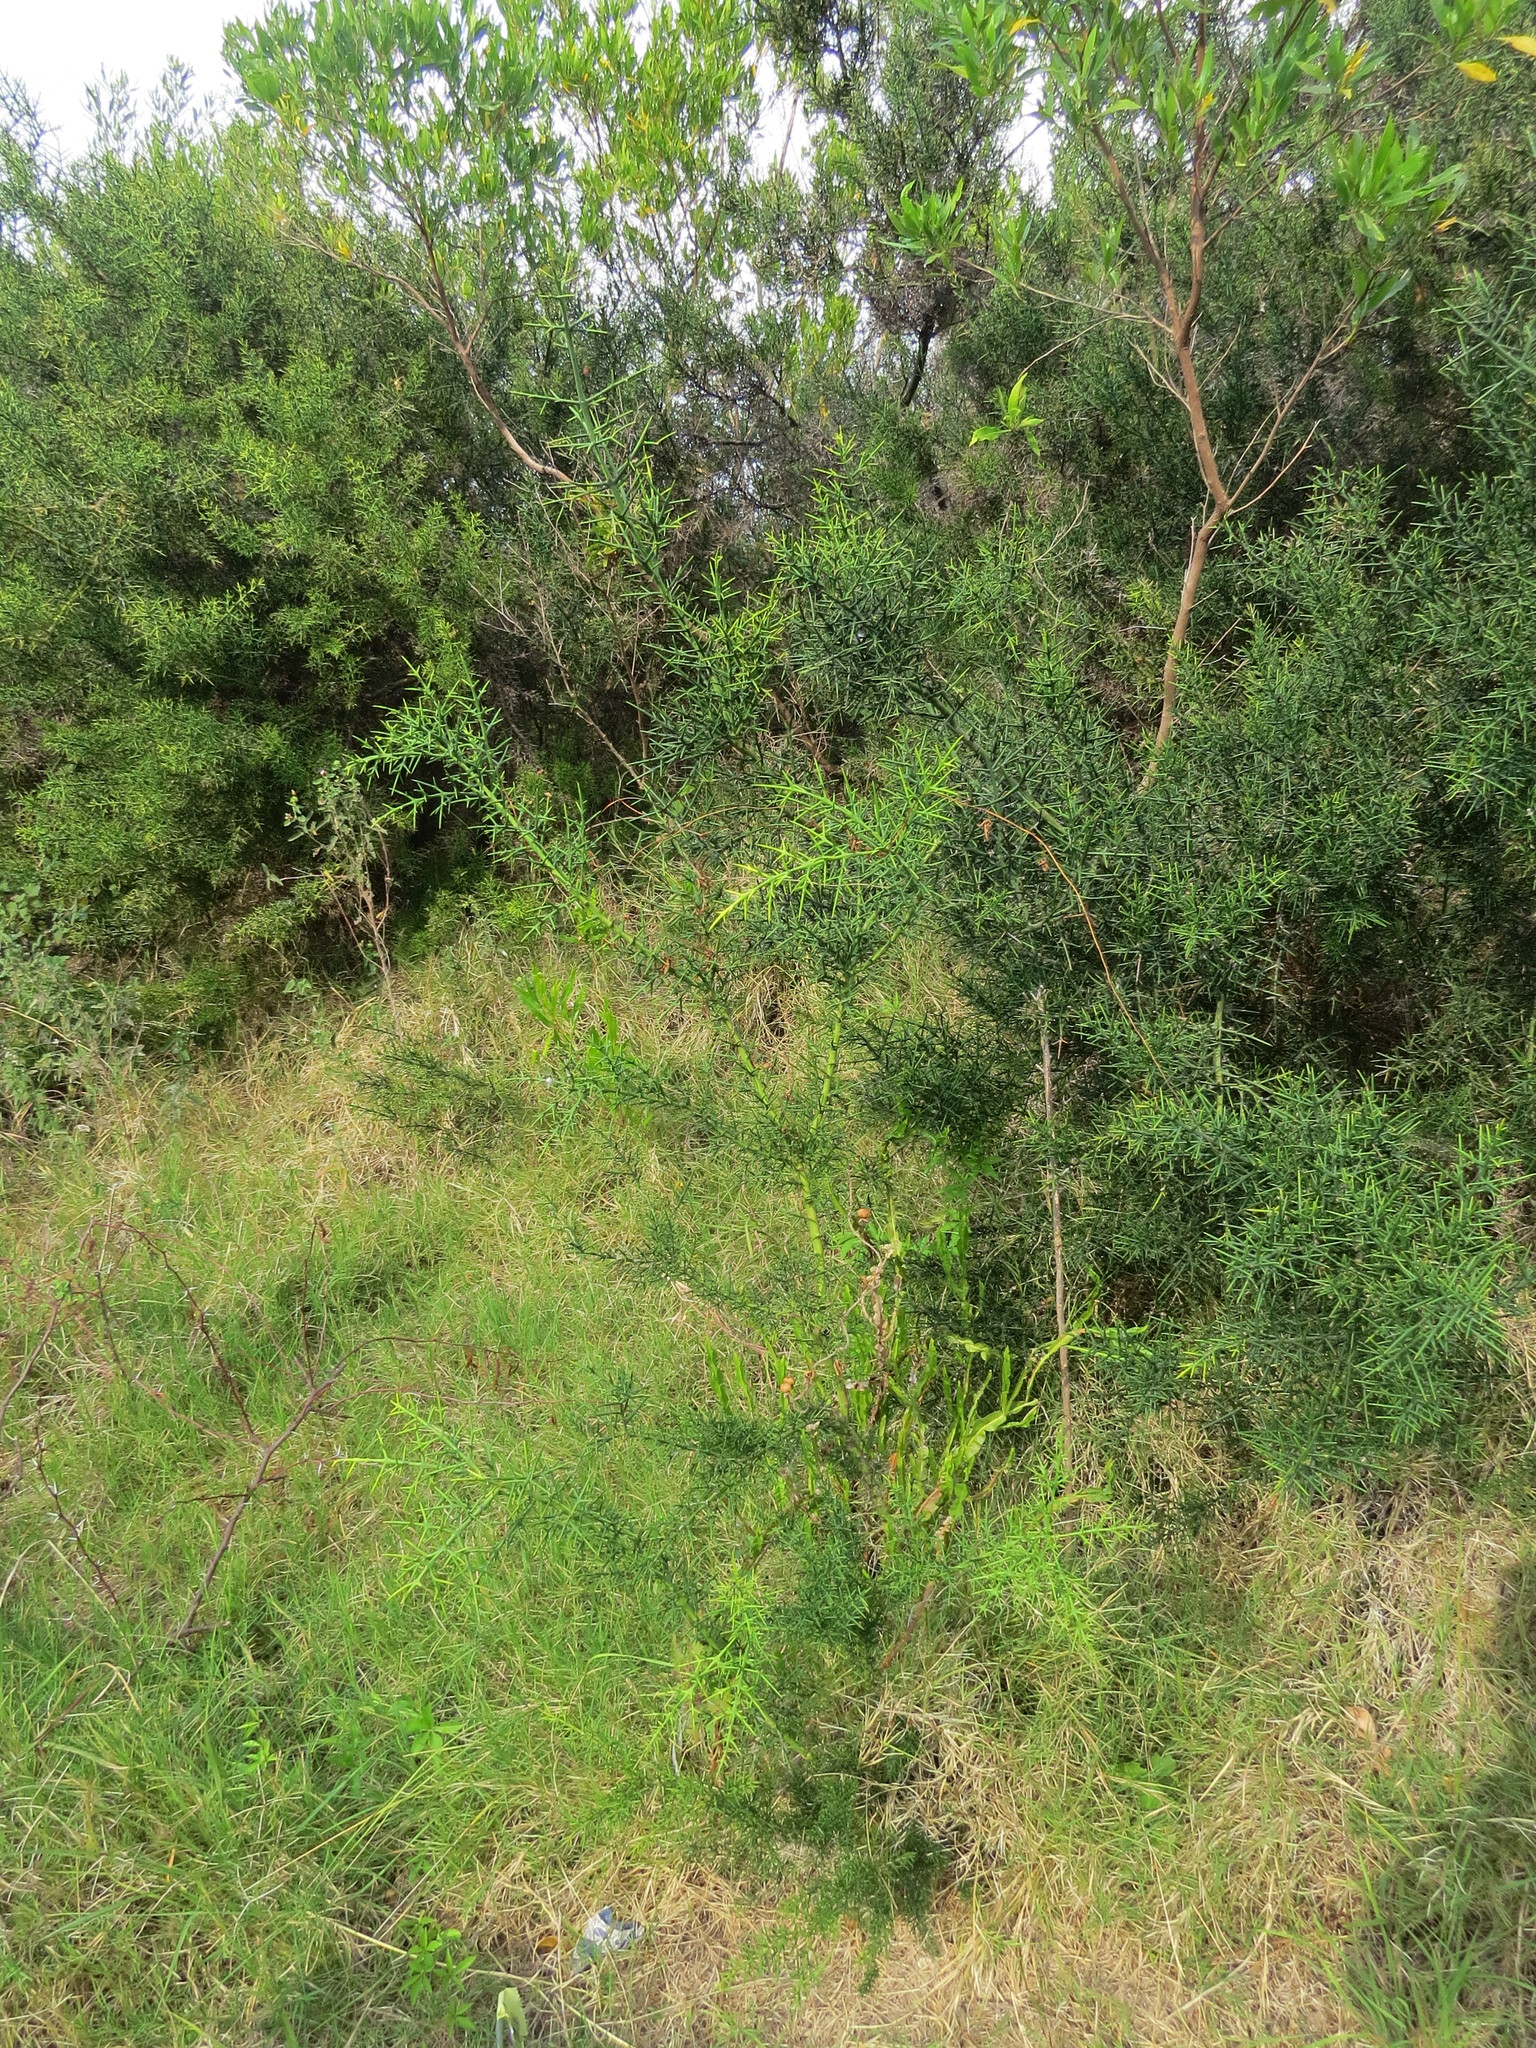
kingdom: Plantae
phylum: Tracheophyta
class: Magnoliopsida
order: Rosales
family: Rhamnaceae
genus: Colletia
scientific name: Colletia spinosissima
